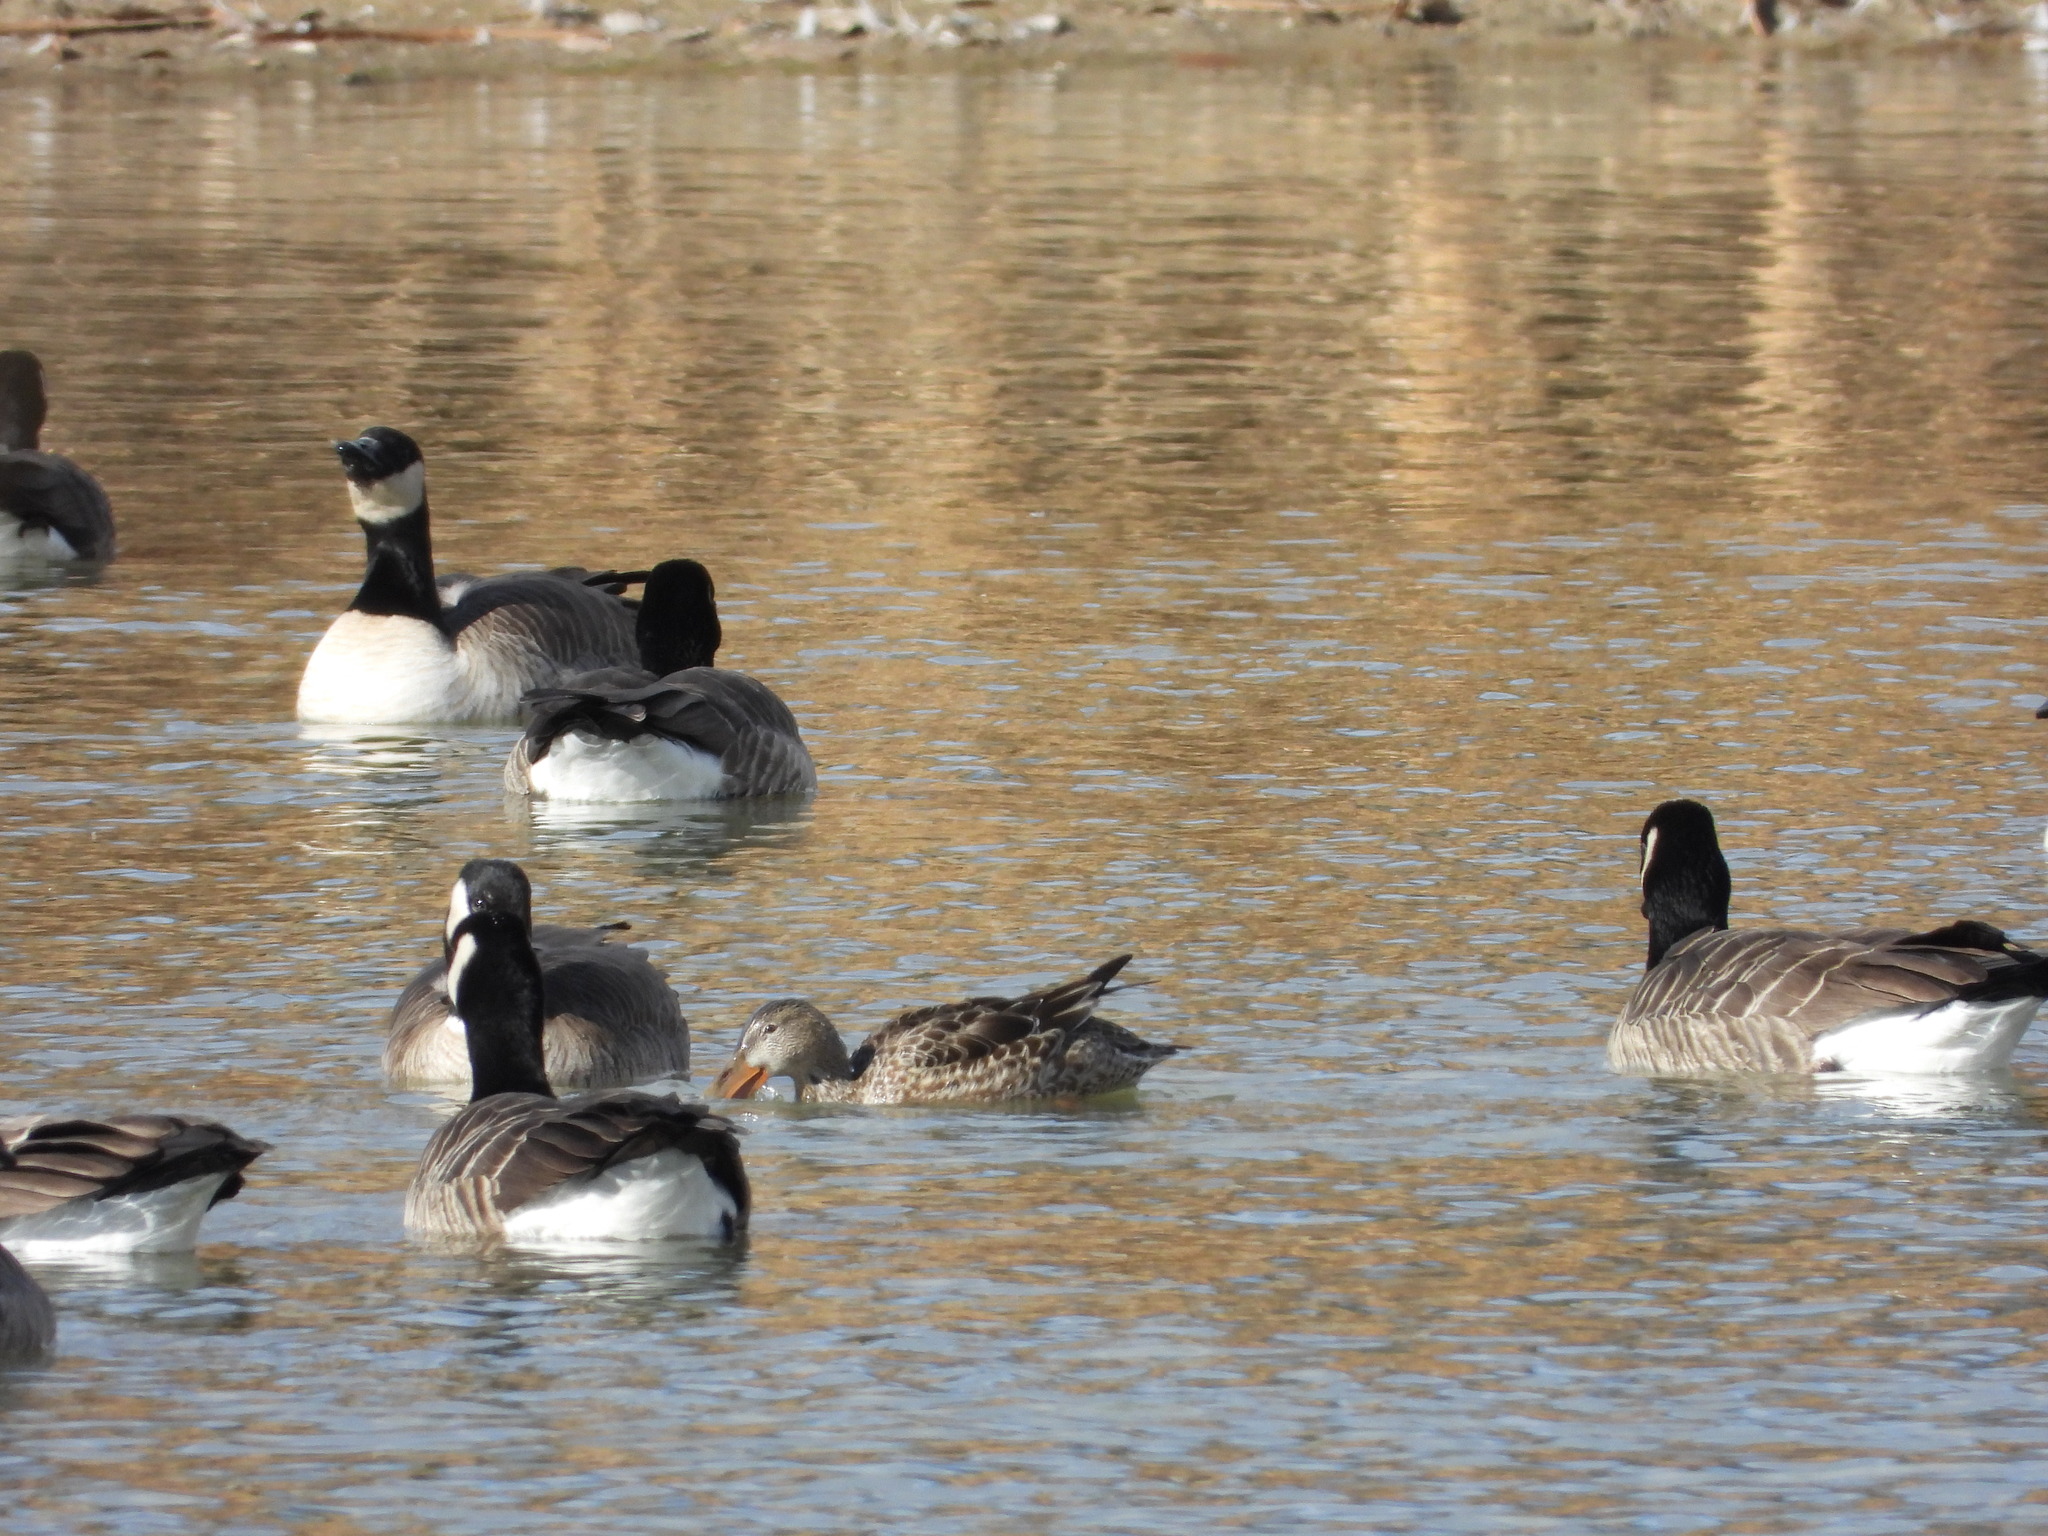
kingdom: Animalia
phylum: Chordata
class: Aves
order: Anseriformes
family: Anatidae
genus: Anas
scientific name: Anas platyrhynchos
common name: Mallard
